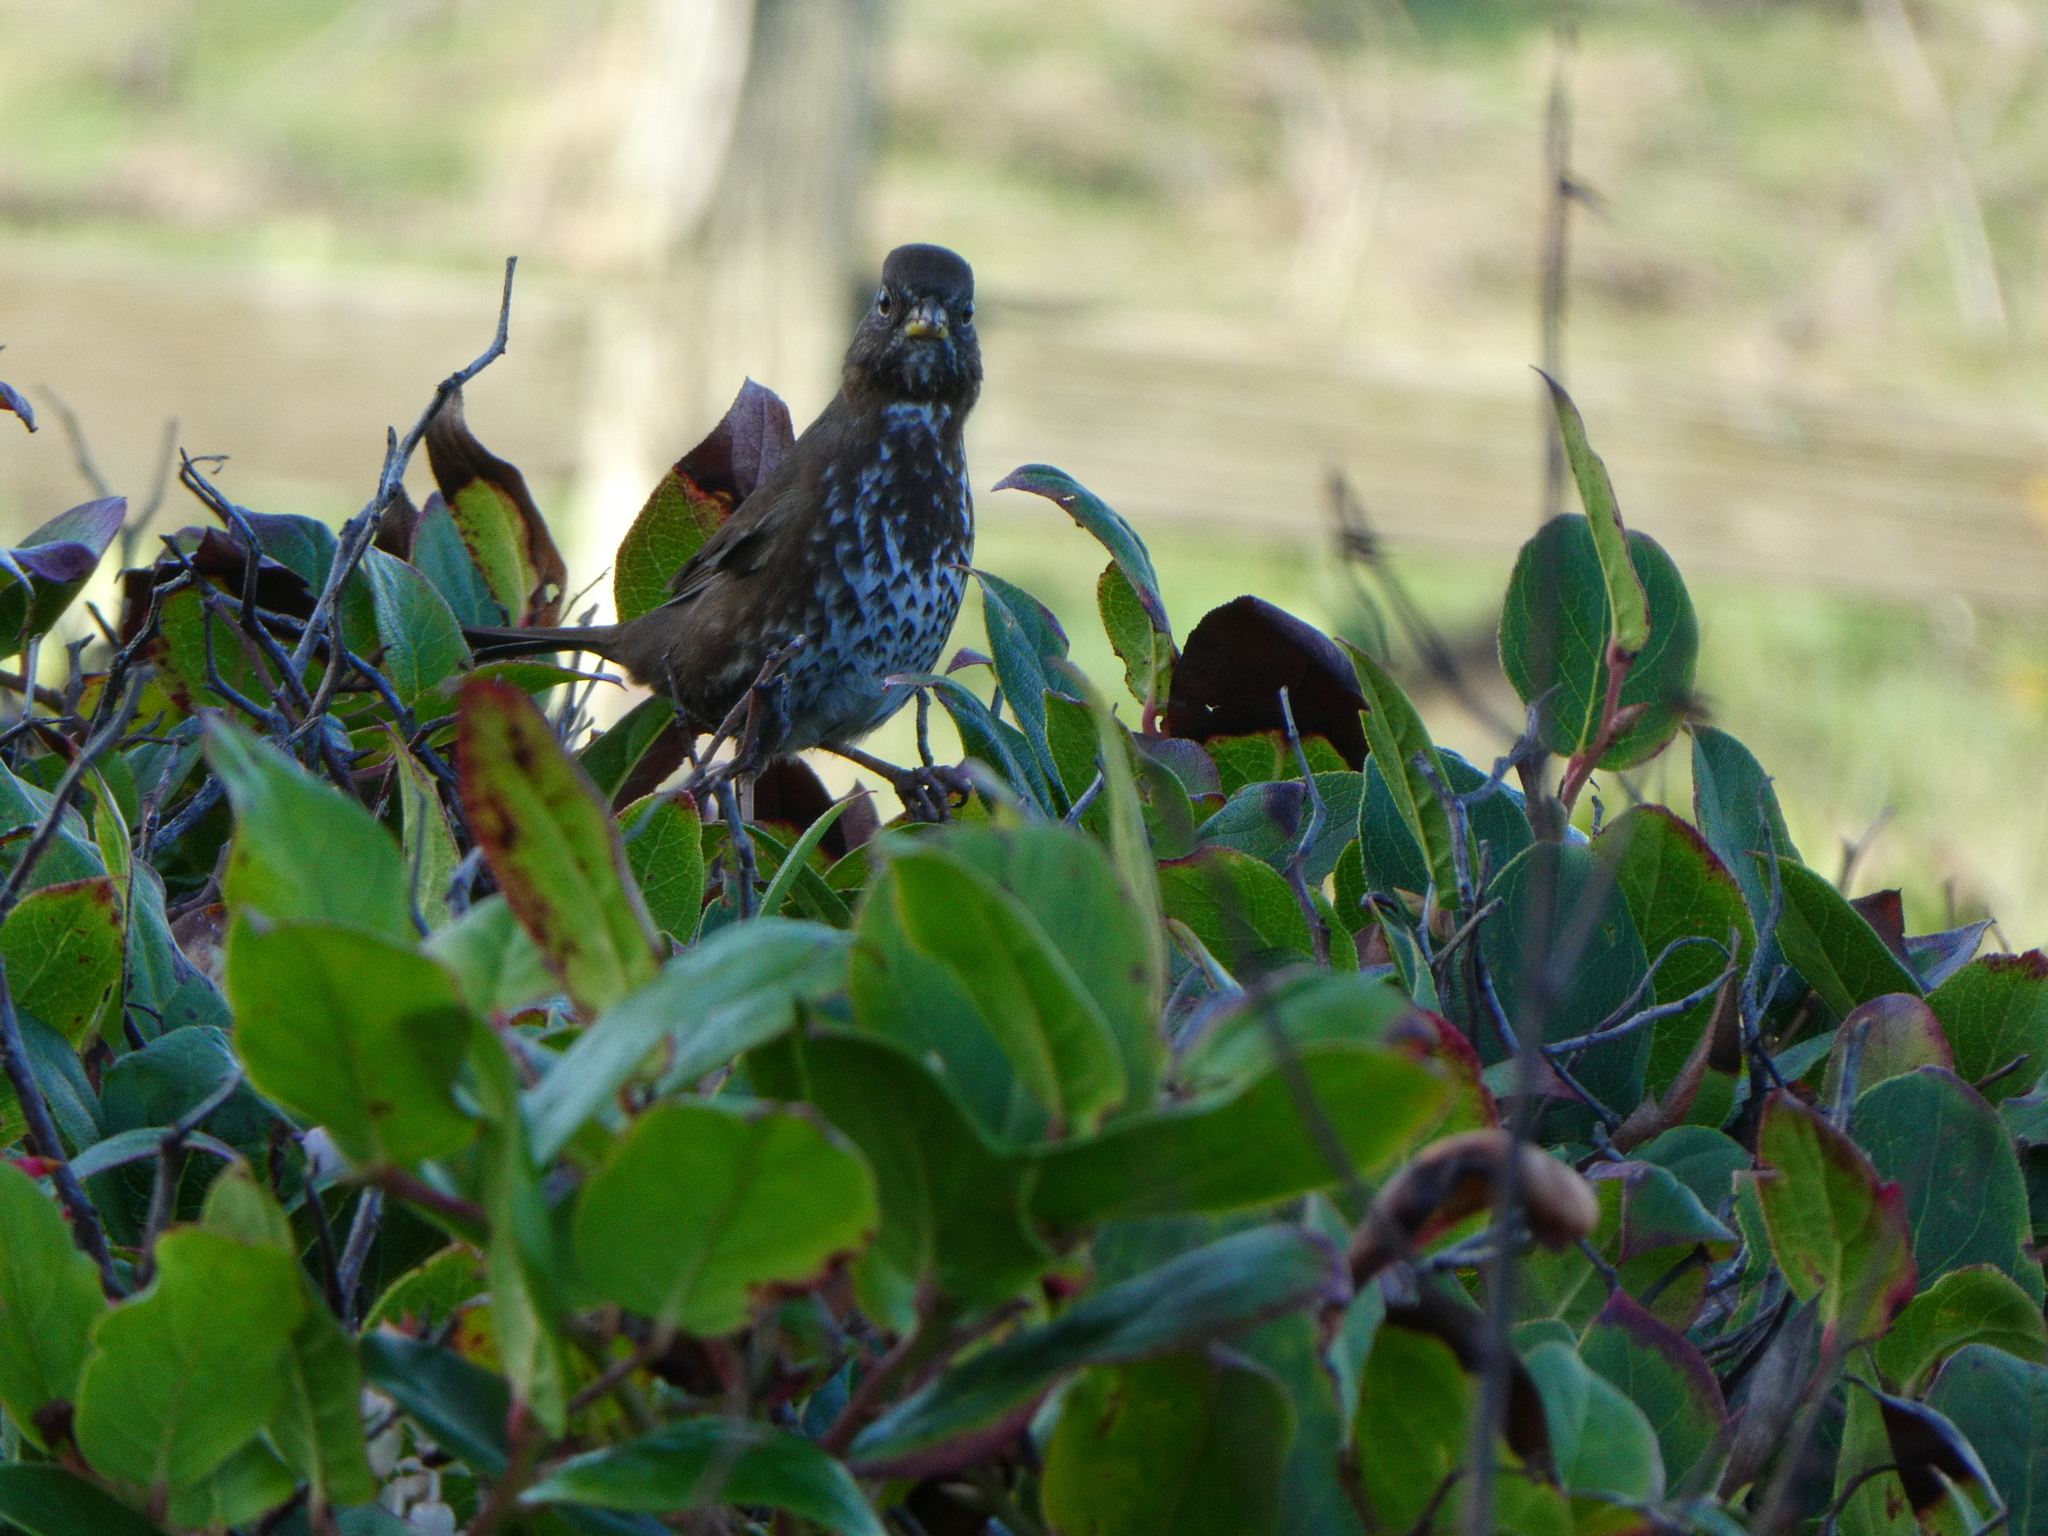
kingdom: Animalia
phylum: Chordata
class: Aves
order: Passeriformes
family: Passerellidae
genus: Passerella
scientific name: Passerella iliaca
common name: Fox sparrow
